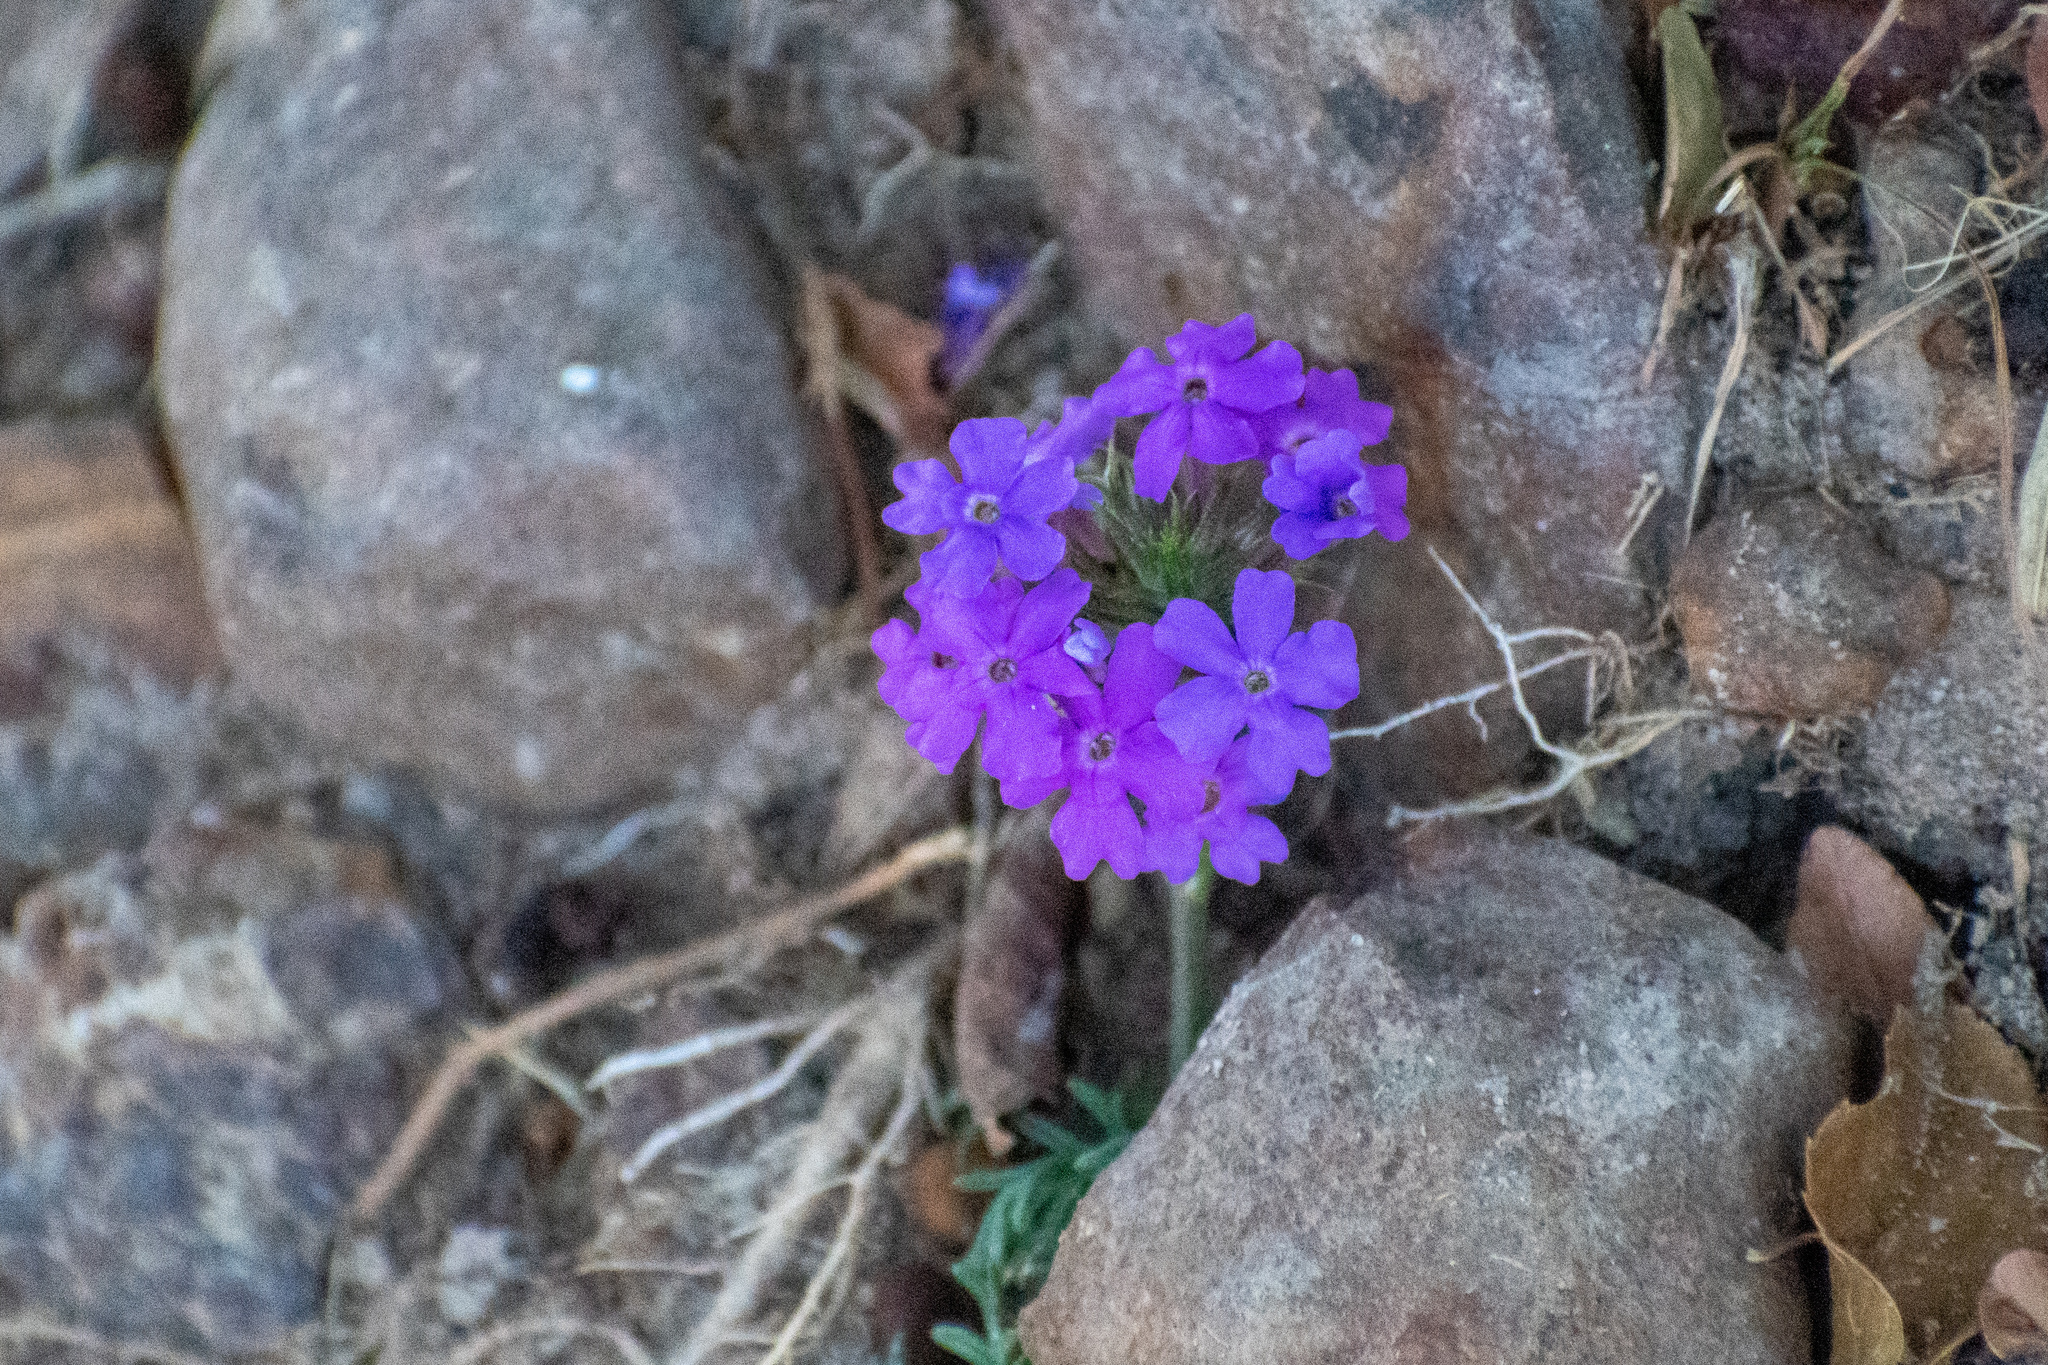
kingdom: Plantae
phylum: Tracheophyta
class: Magnoliopsida
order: Lamiales
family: Verbenaceae
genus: Verbena
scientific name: Verbena aristigera
